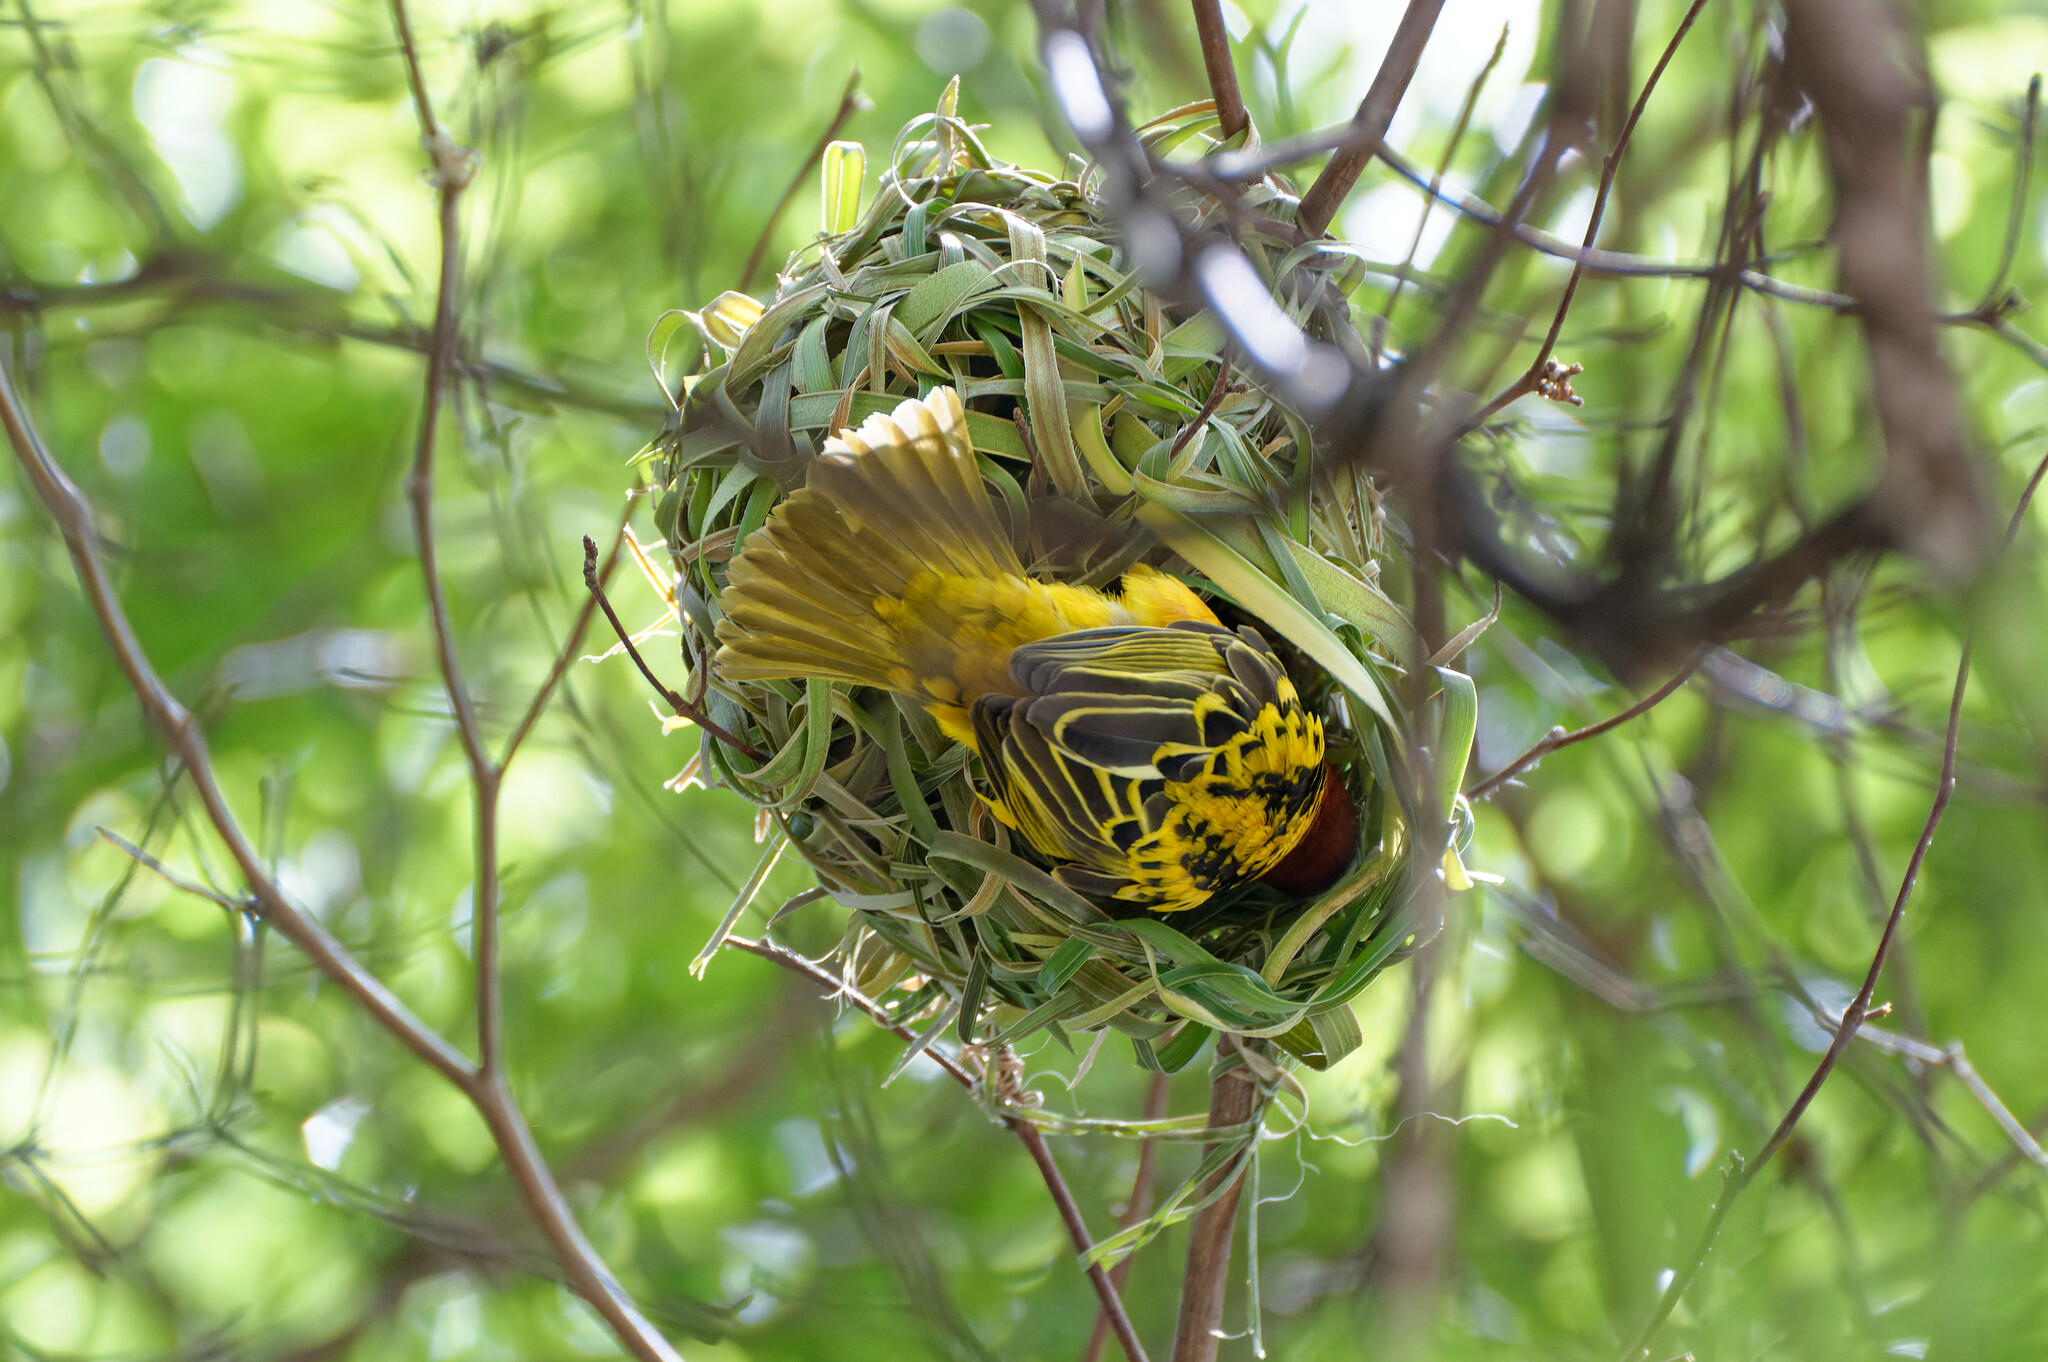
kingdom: Animalia
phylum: Chordata
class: Aves
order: Passeriformes
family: Ploceidae
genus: Ploceus
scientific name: Ploceus cucullatus
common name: Village weaver
